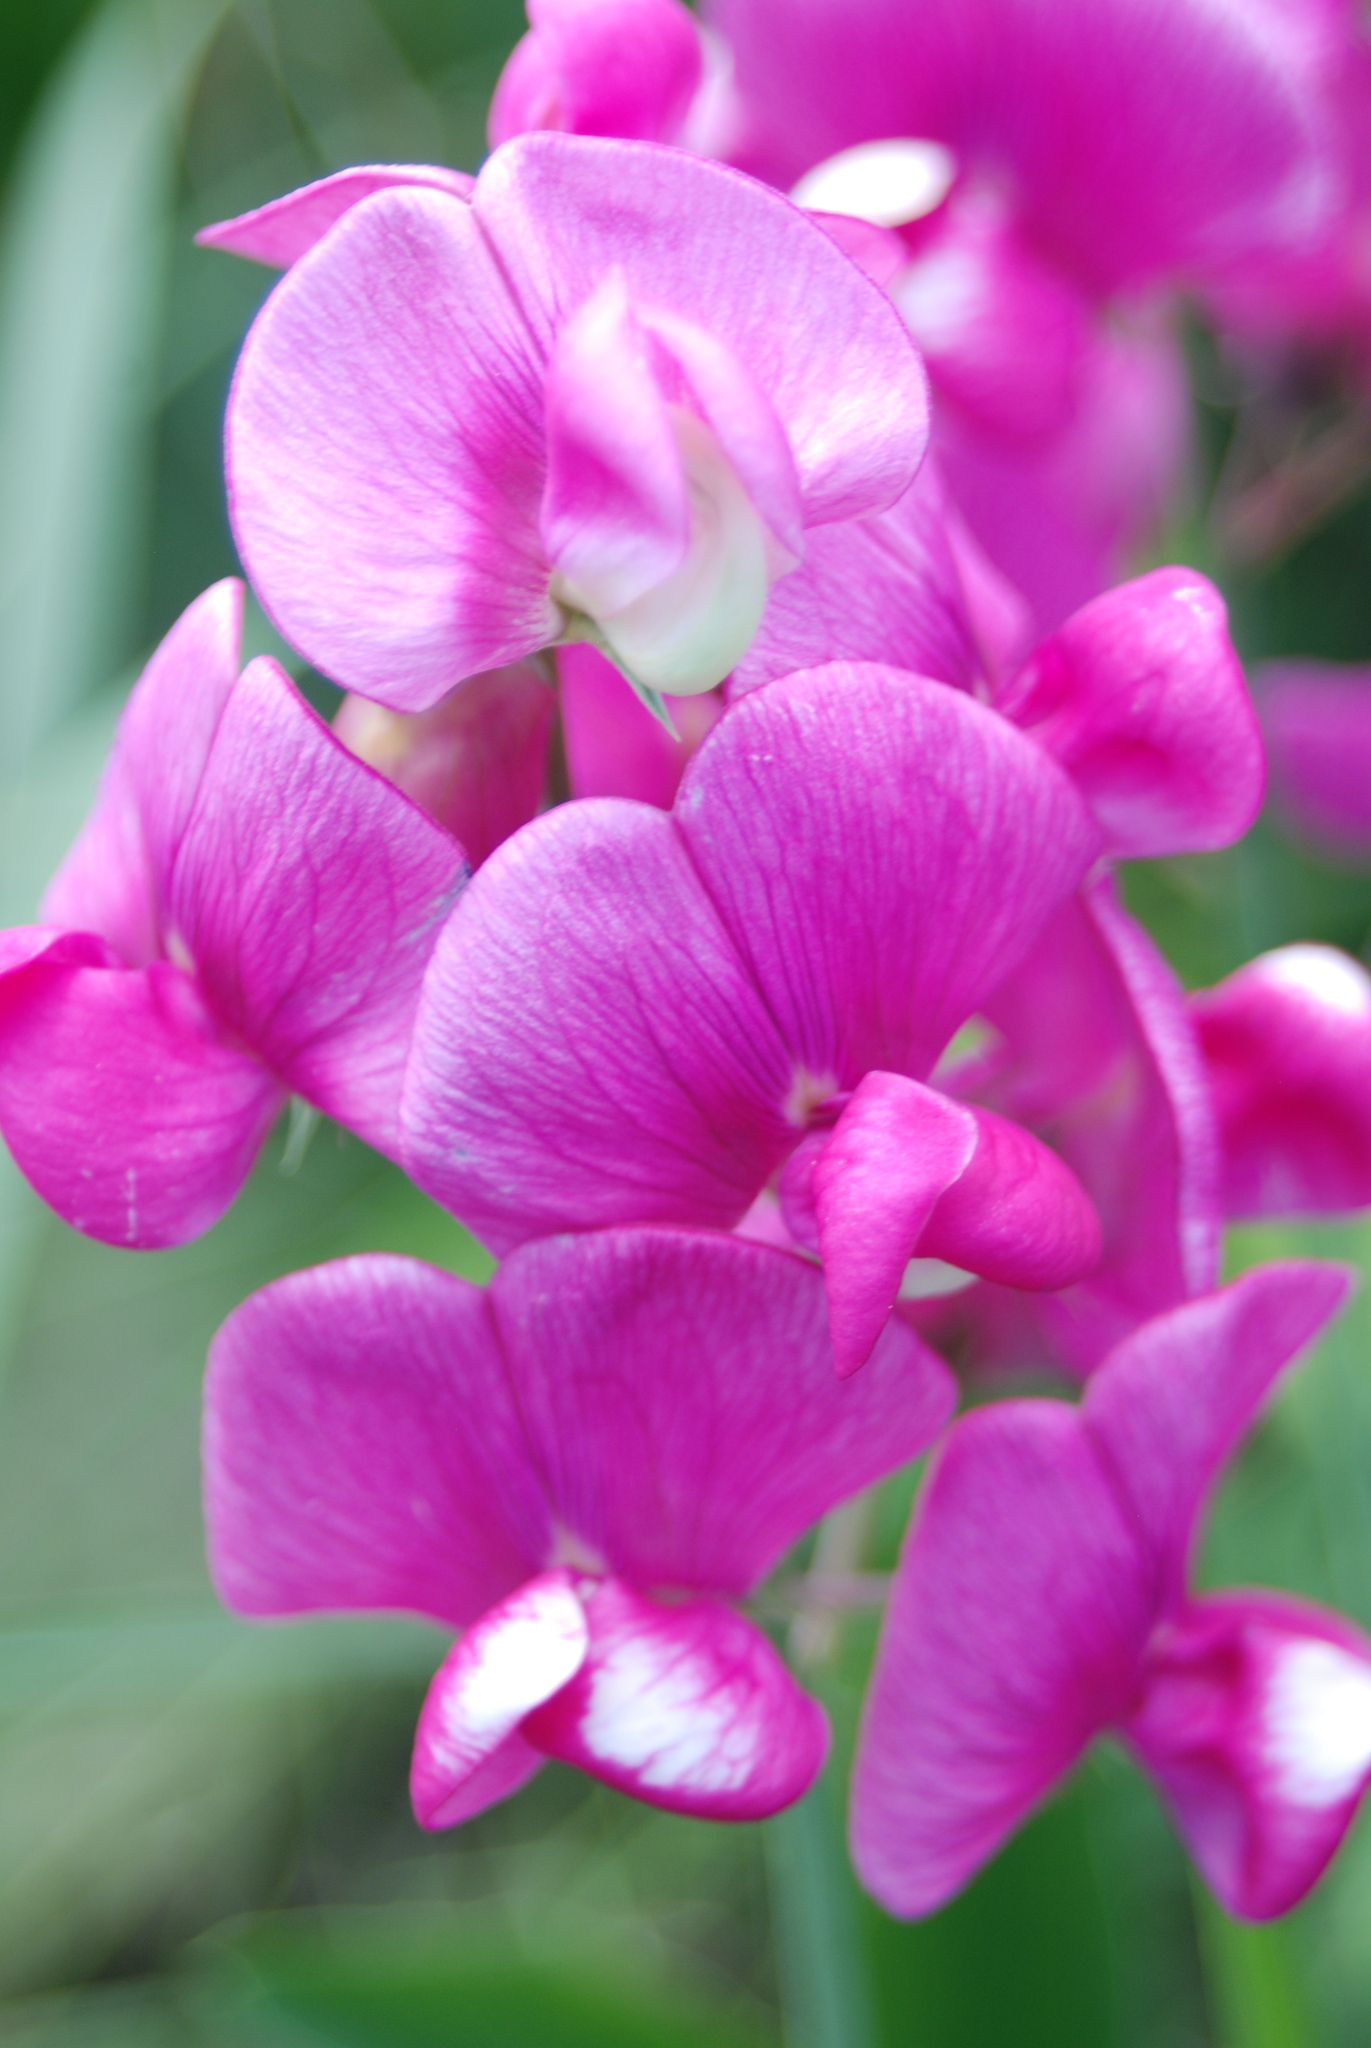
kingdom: Plantae
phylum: Tracheophyta
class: Magnoliopsida
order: Fabales
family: Fabaceae
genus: Lathyrus
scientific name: Lathyrus latifolius
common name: Perennial pea
